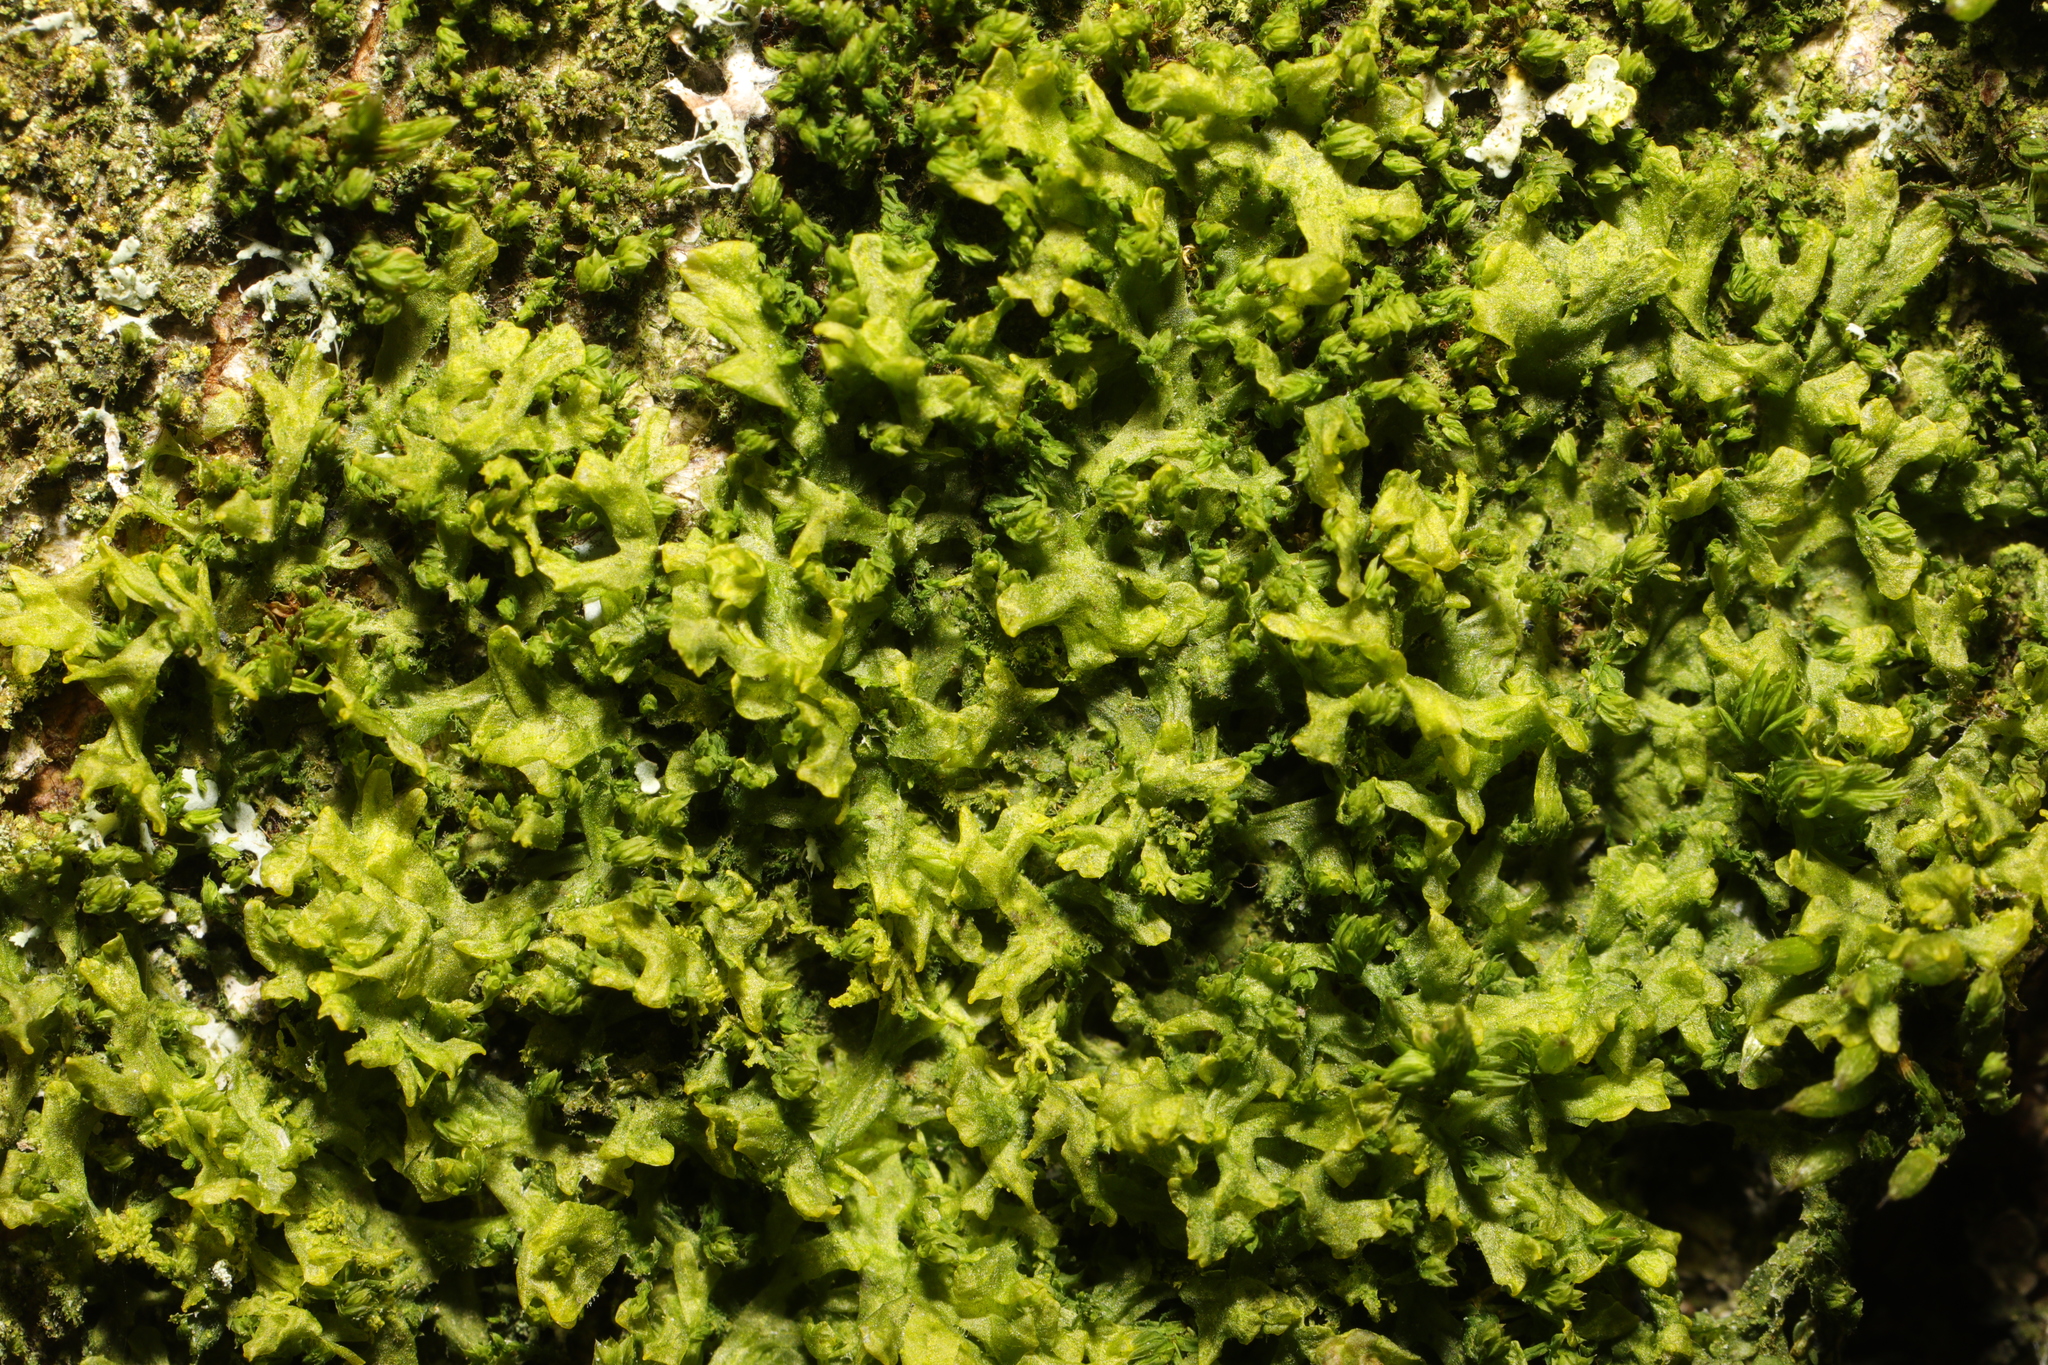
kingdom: Plantae
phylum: Marchantiophyta
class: Jungermanniopsida
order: Metzgeriales
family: Metzgeriaceae
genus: Metzgeria
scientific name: Metzgeria furcata
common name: Forked veilwort
